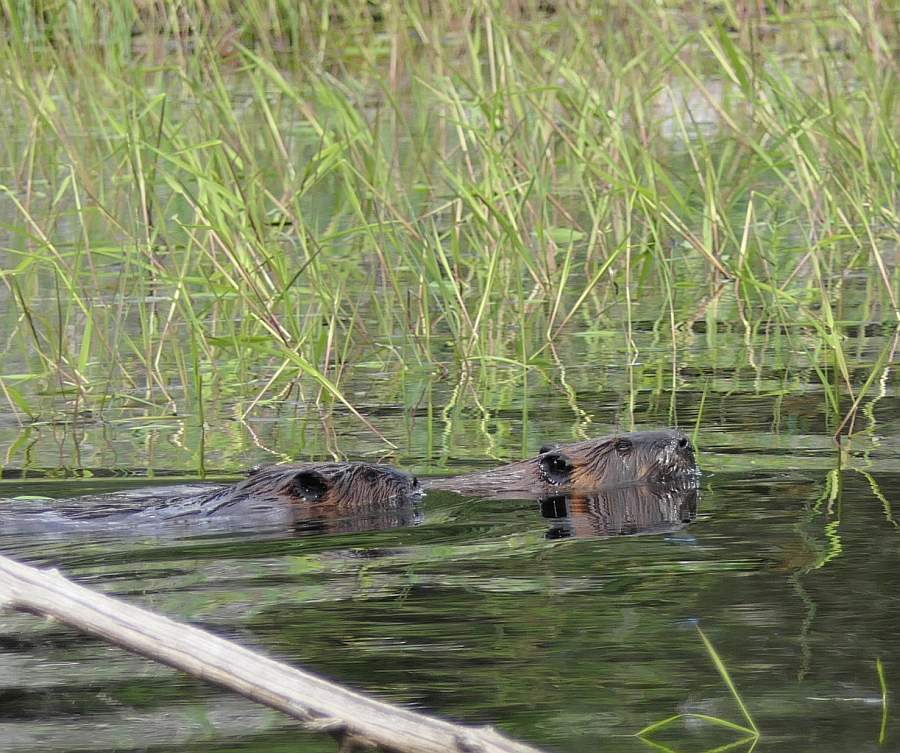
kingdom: Animalia
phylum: Chordata
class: Mammalia
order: Rodentia
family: Castoridae
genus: Castor
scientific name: Castor canadensis
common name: American beaver
